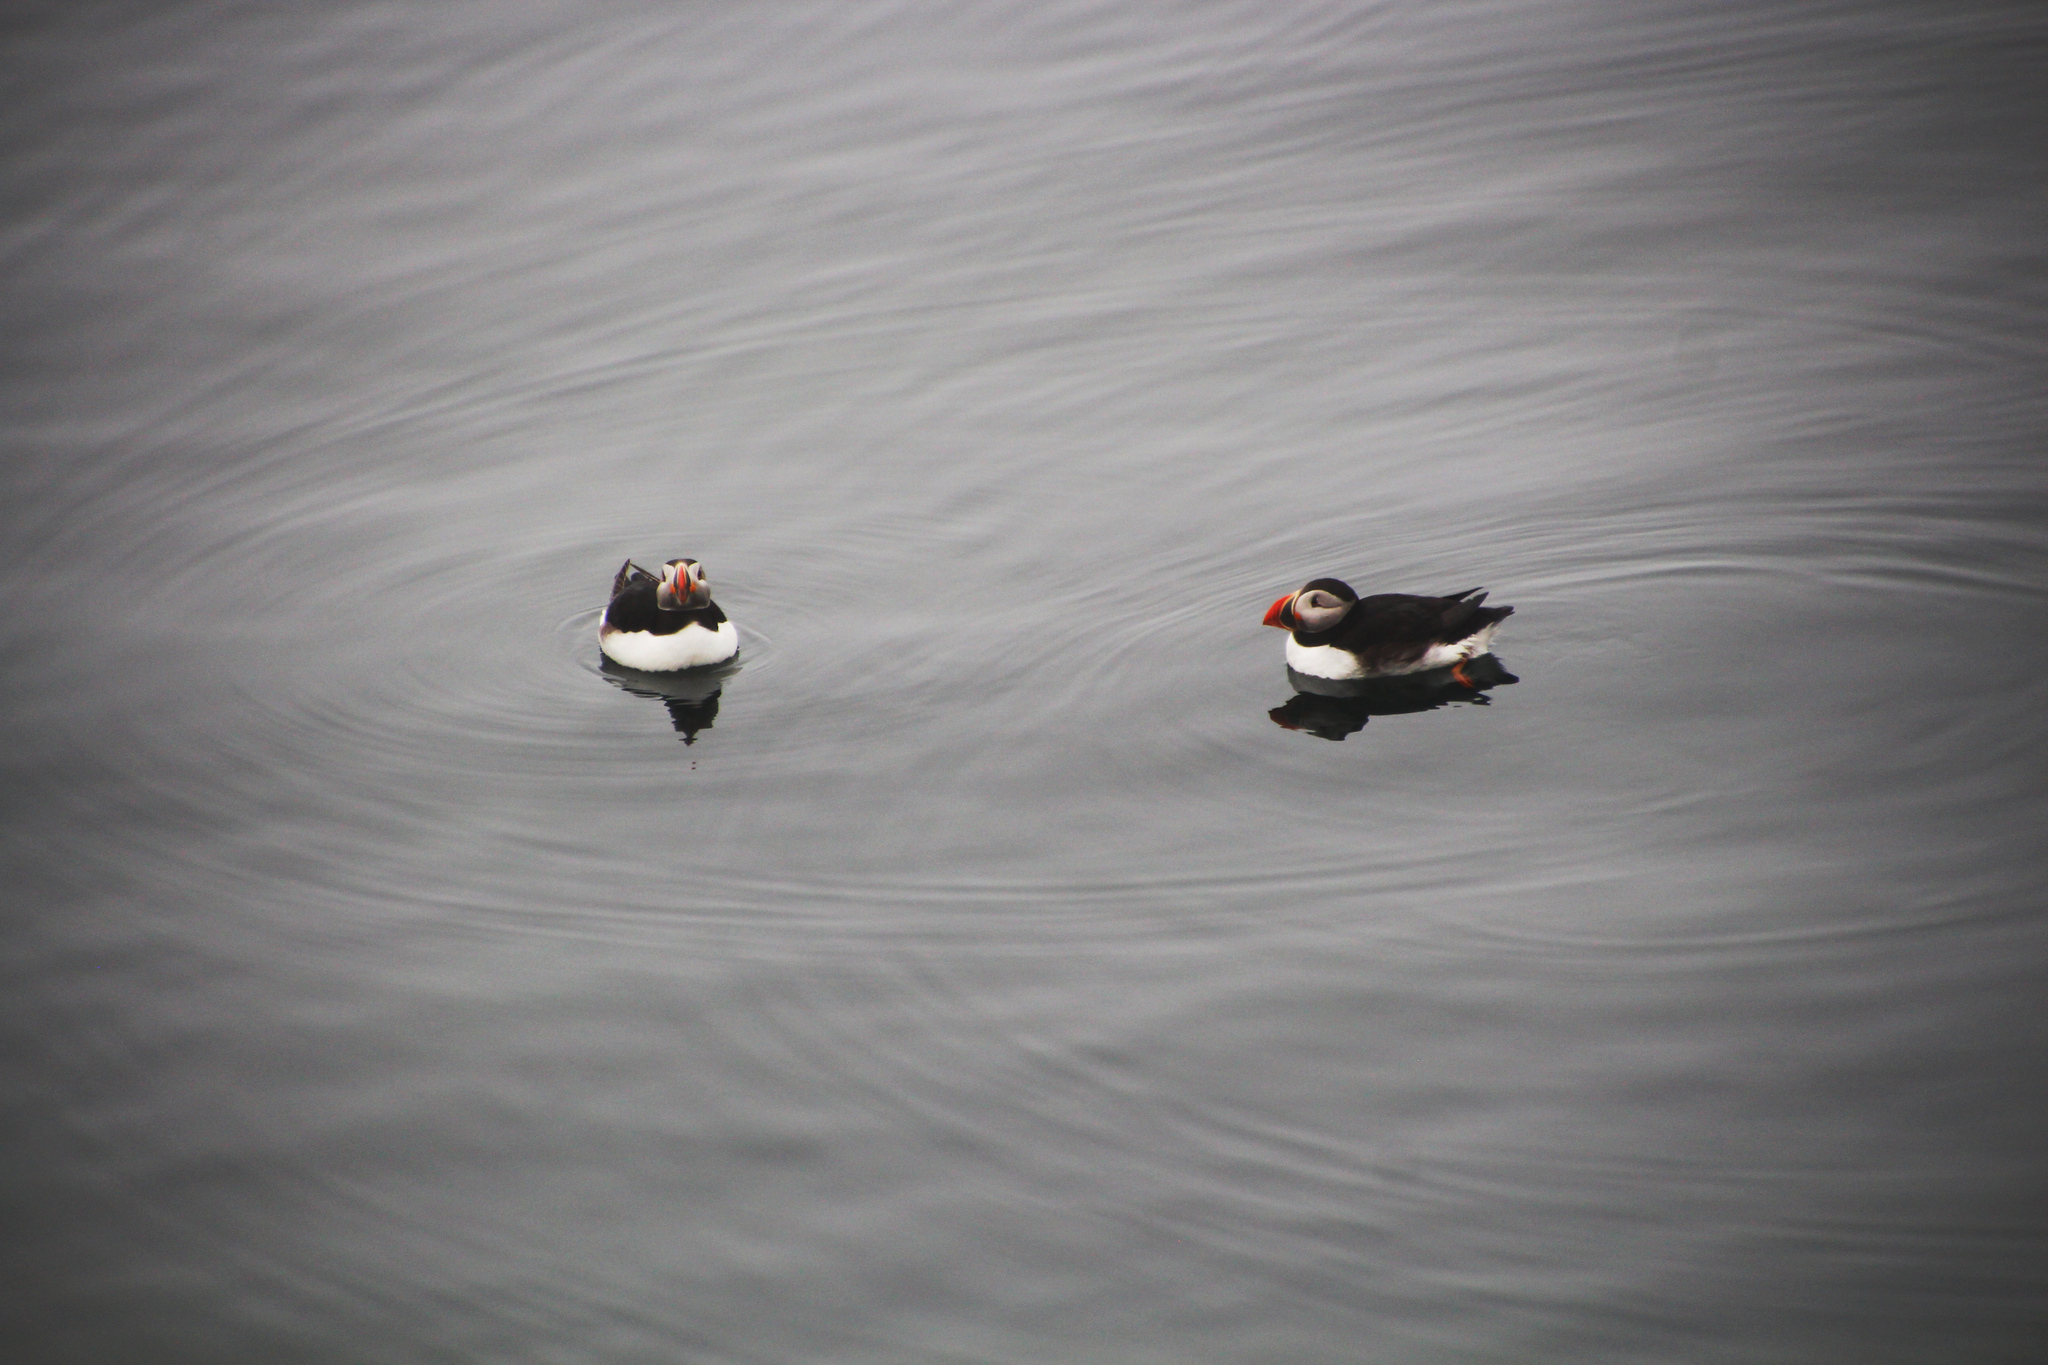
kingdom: Animalia
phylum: Chordata
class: Aves
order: Charadriiformes
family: Alcidae
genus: Fratercula
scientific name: Fratercula arctica
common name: Atlantic puffin
